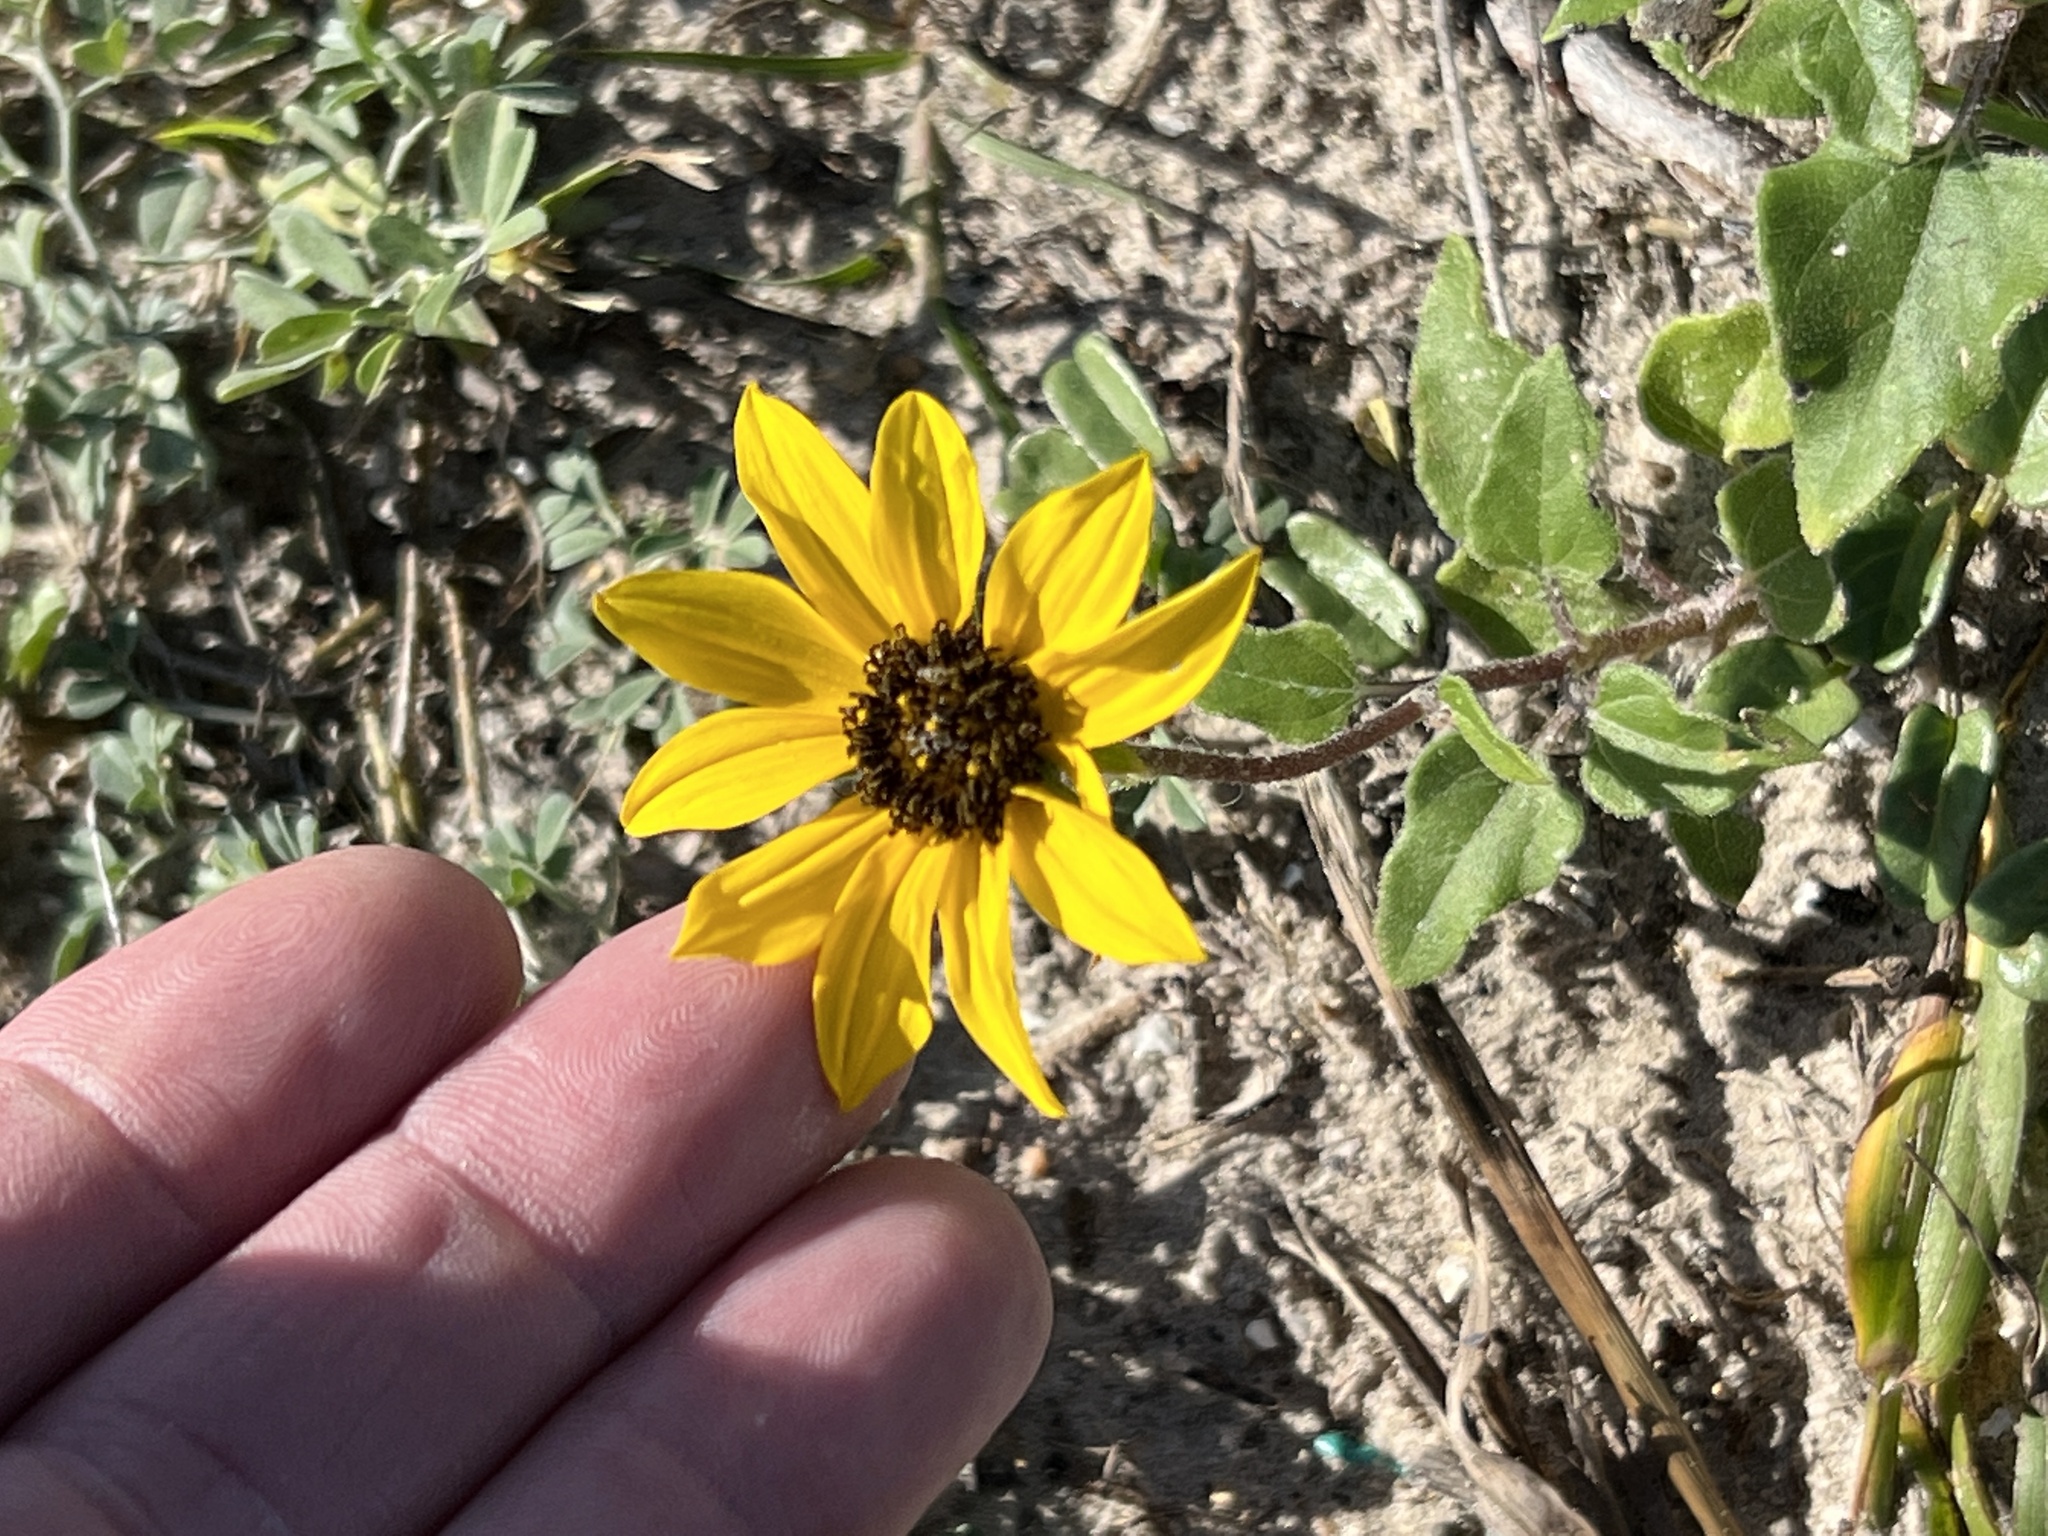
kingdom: Plantae
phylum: Tracheophyta
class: Magnoliopsida
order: Asterales
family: Asteraceae
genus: Helianthus
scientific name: Helianthus debilis
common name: Weak sunflower
